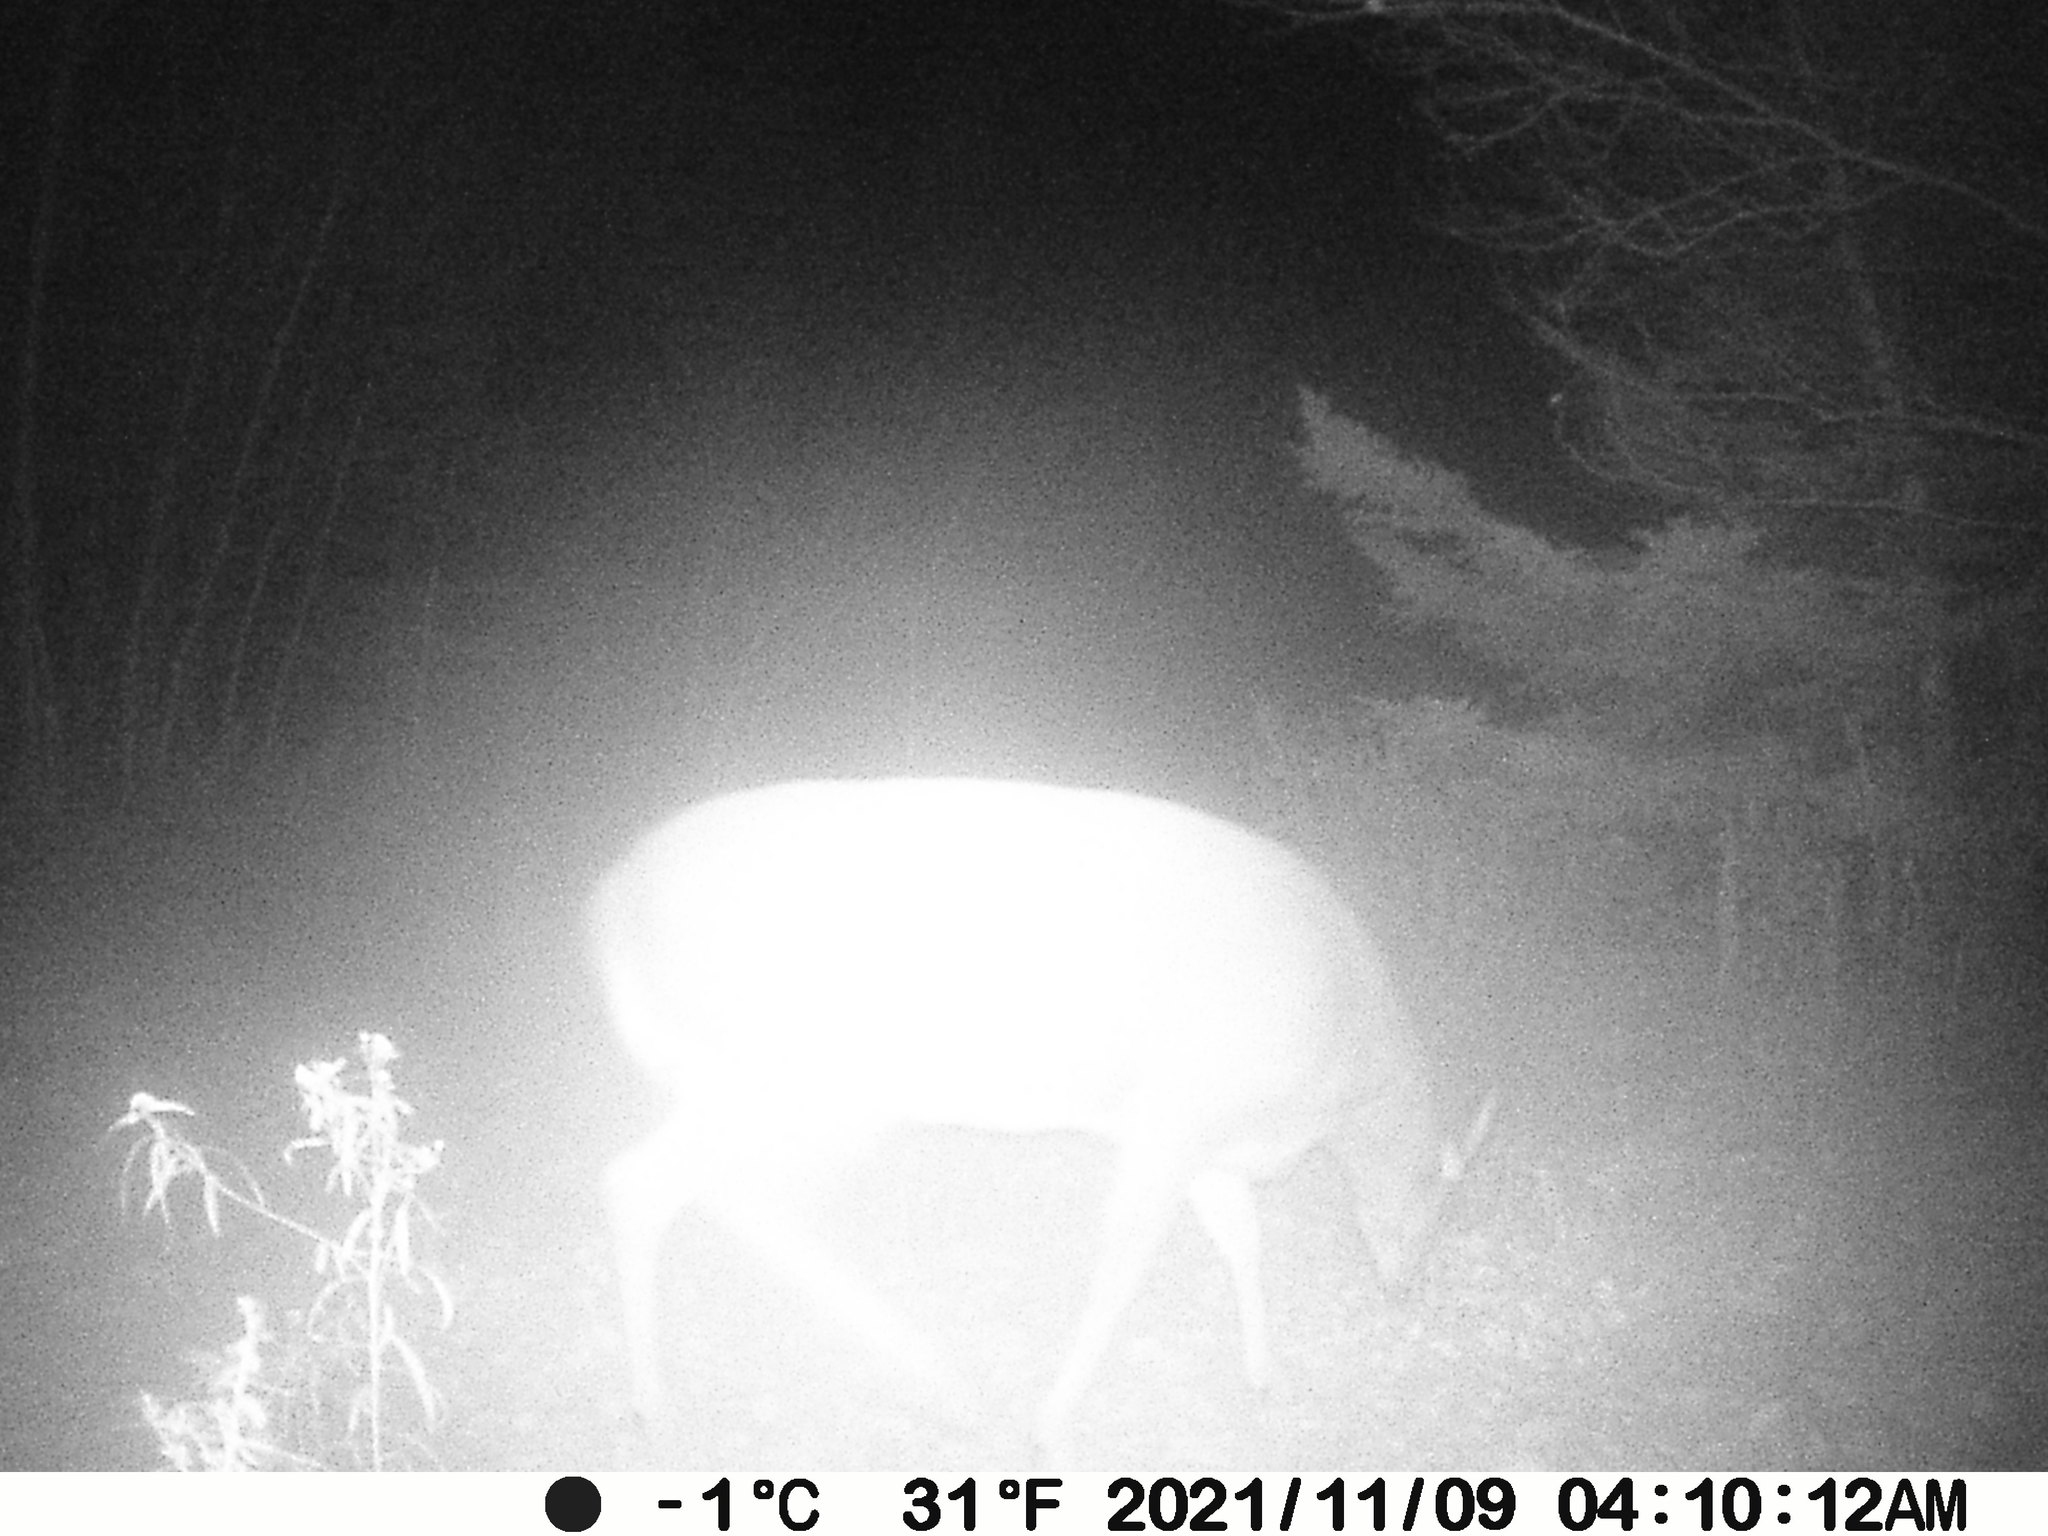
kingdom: Animalia
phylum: Chordata
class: Mammalia
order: Artiodactyla
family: Cervidae
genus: Odocoileus
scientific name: Odocoileus virginianus
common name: White-tailed deer
